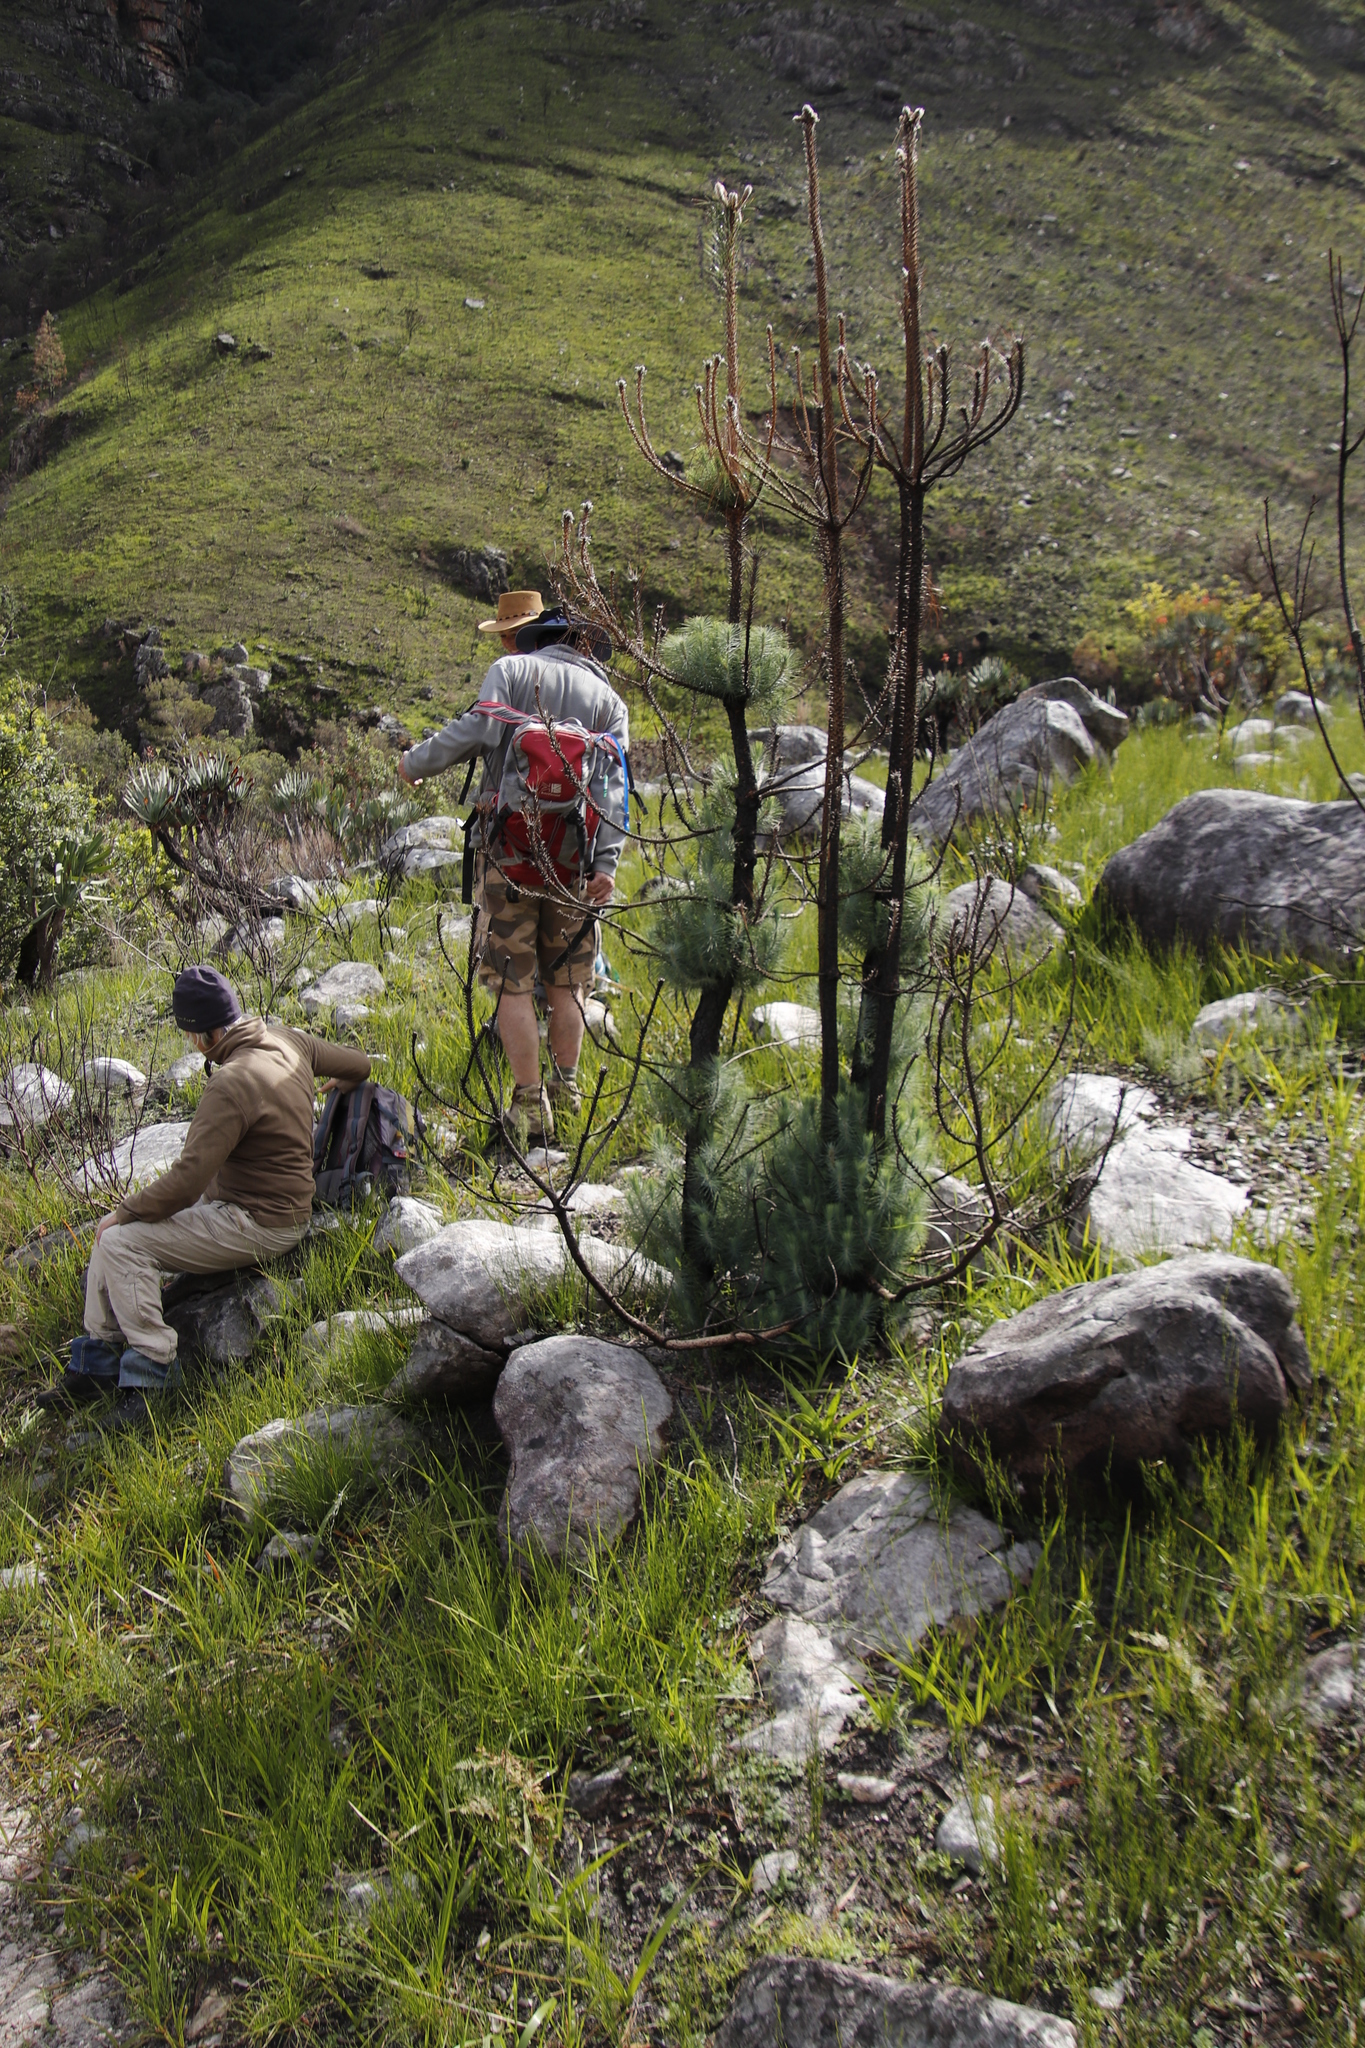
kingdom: Plantae
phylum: Tracheophyta
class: Pinopsida
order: Pinales
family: Pinaceae
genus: Pinus
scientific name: Pinus canariensis
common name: Canary islands pine
